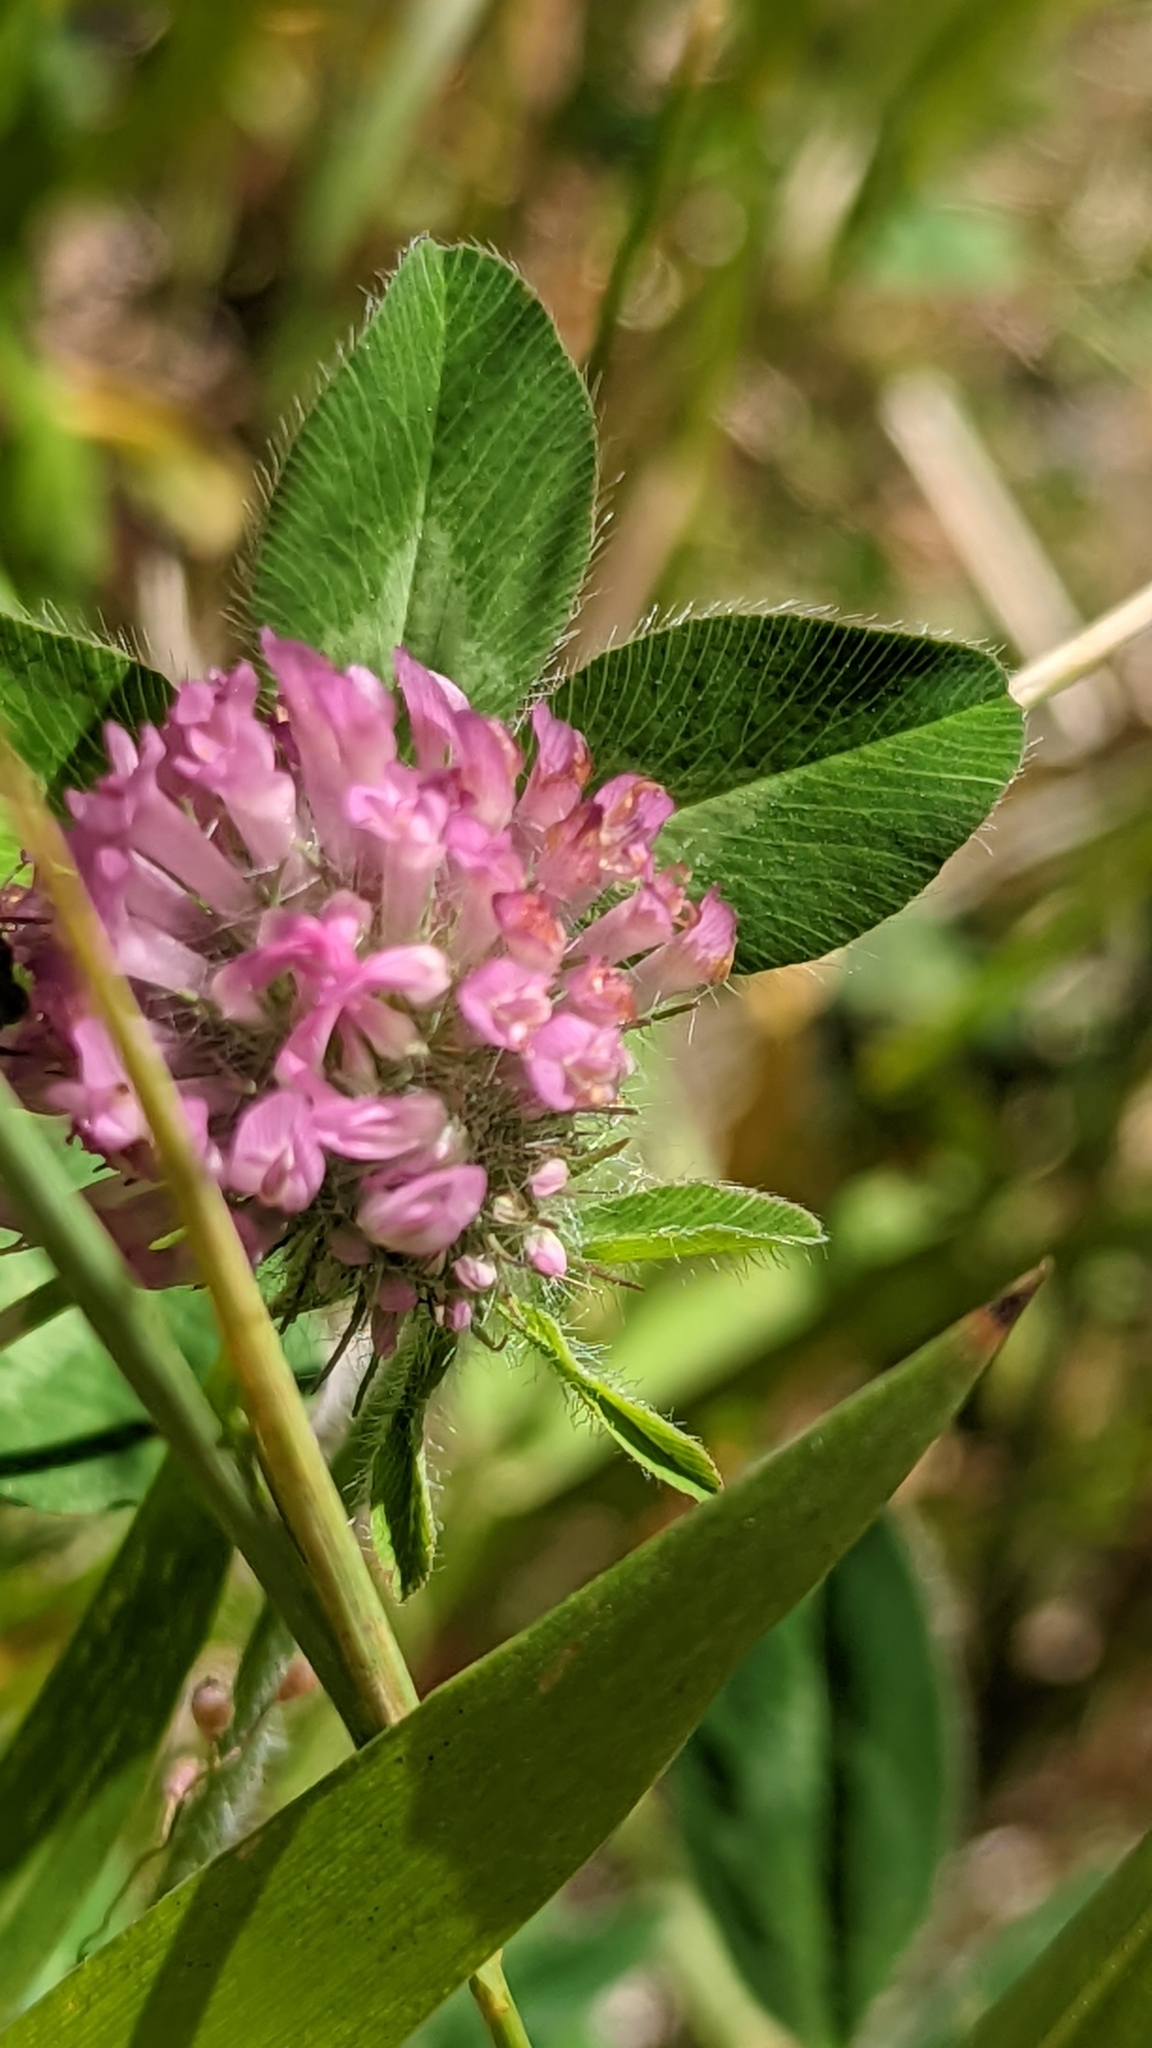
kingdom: Plantae
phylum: Tracheophyta
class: Magnoliopsida
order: Fabales
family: Fabaceae
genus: Trifolium
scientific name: Trifolium pratense
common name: Red clover
